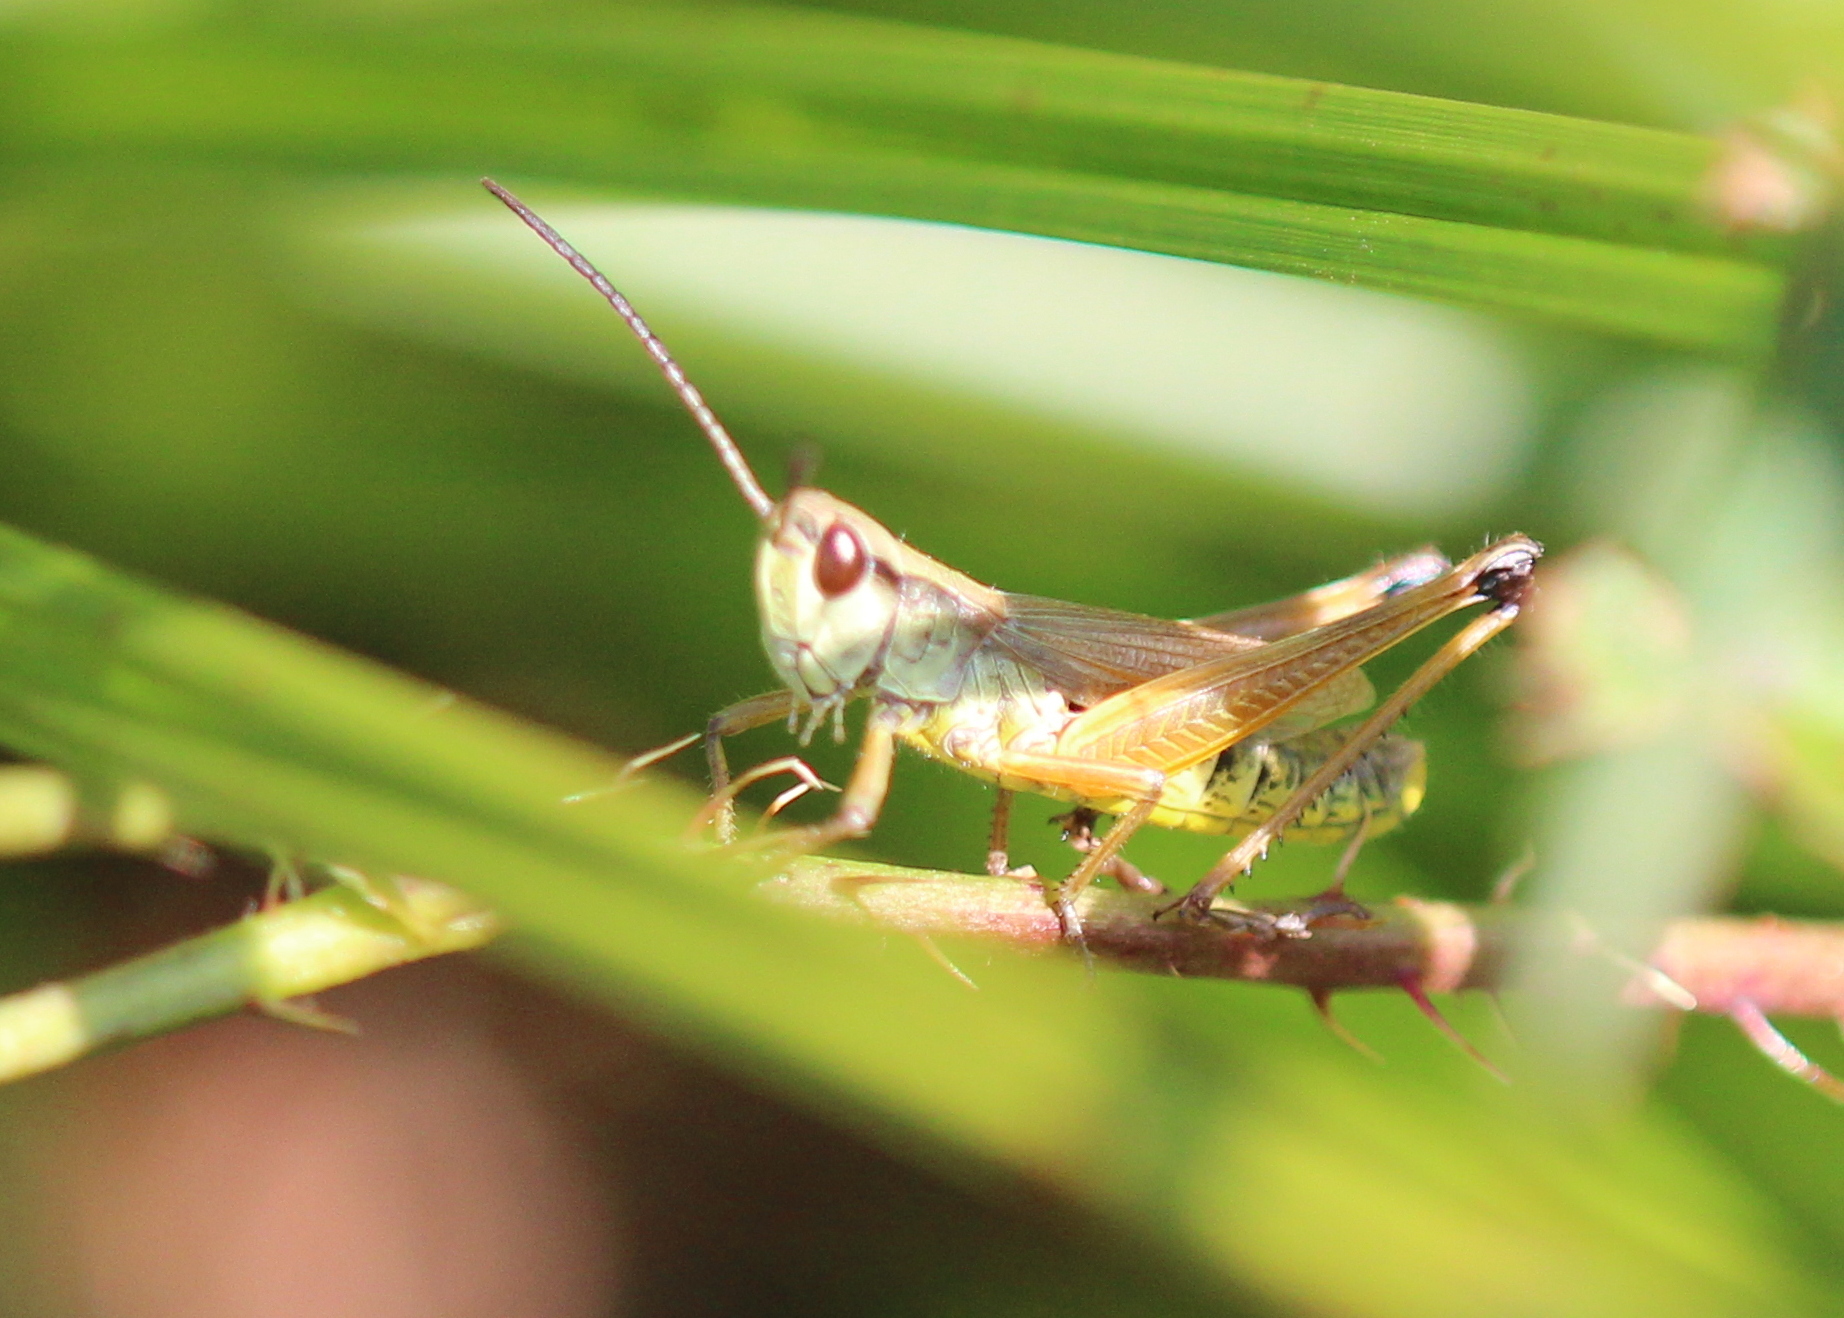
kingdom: Animalia
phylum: Arthropoda
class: Insecta
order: Orthoptera
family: Acrididae
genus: Pseudochorthippus
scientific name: Pseudochorthippus curtipennis
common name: Marsh meadow grasshopper
